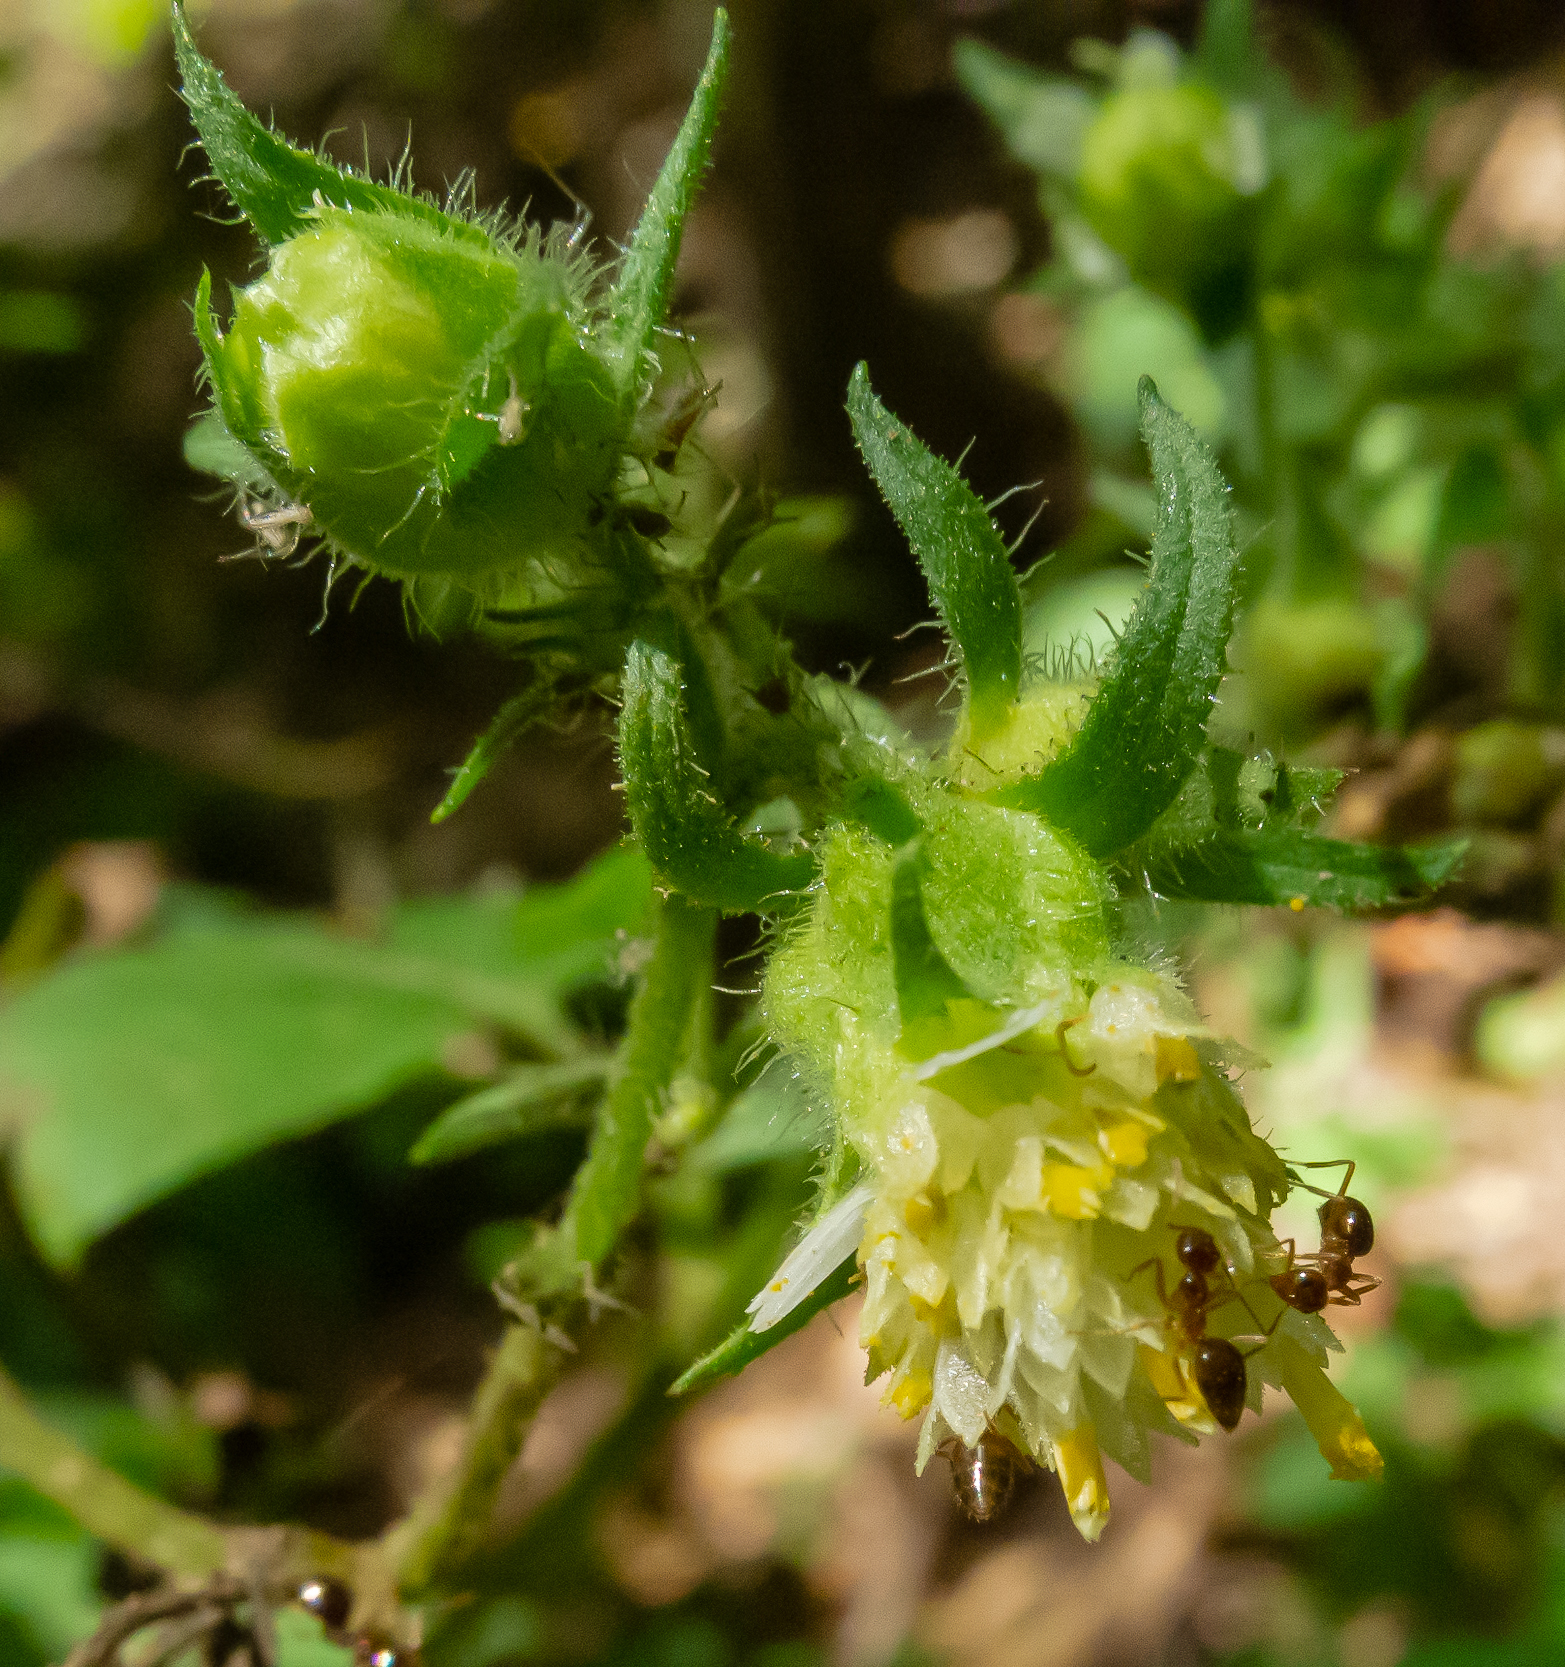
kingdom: Plantae
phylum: Tracheophyta
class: Magnoliopsida
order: Asterales
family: Asteraceae
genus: Polymnia
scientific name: Polymnia canadensis
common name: Pale-flowered leafcup
